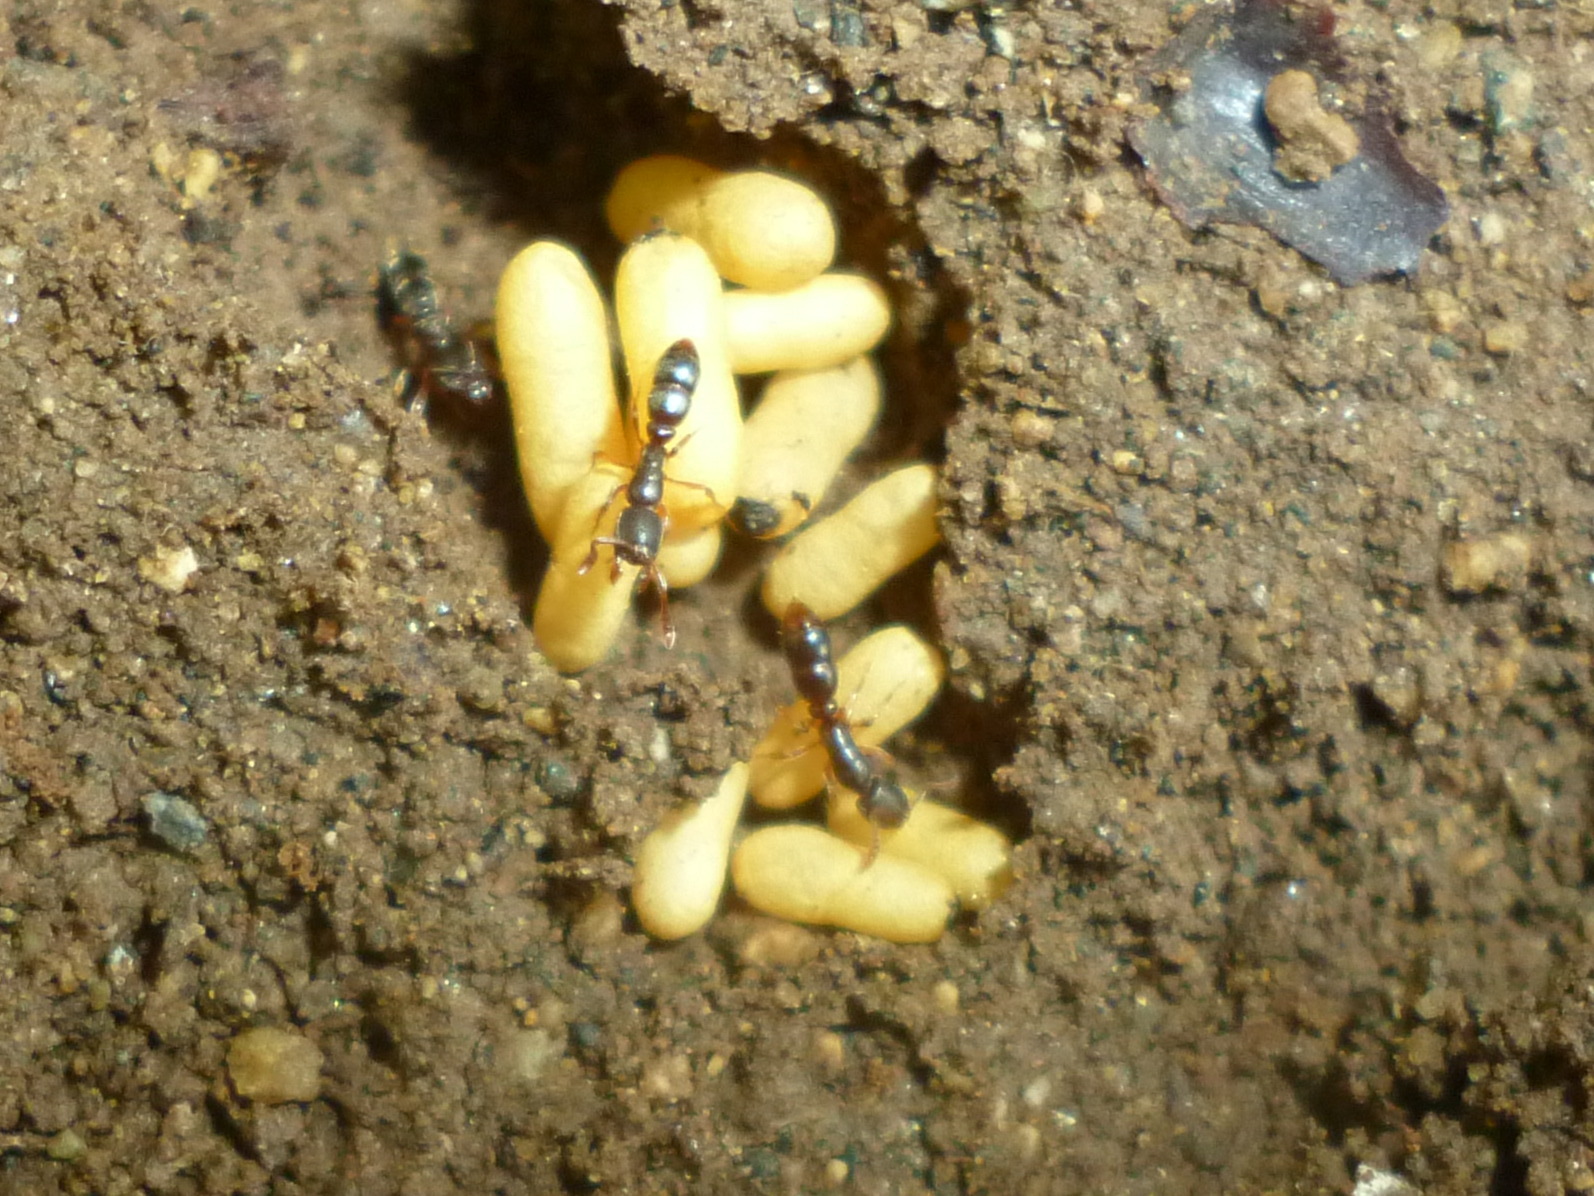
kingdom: Animalia
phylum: Arthropoda
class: Insecta
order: Hymenoptera
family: Formicidae
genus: Ponera
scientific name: Ponera pennsylvanica
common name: Pennsylvania ponera
